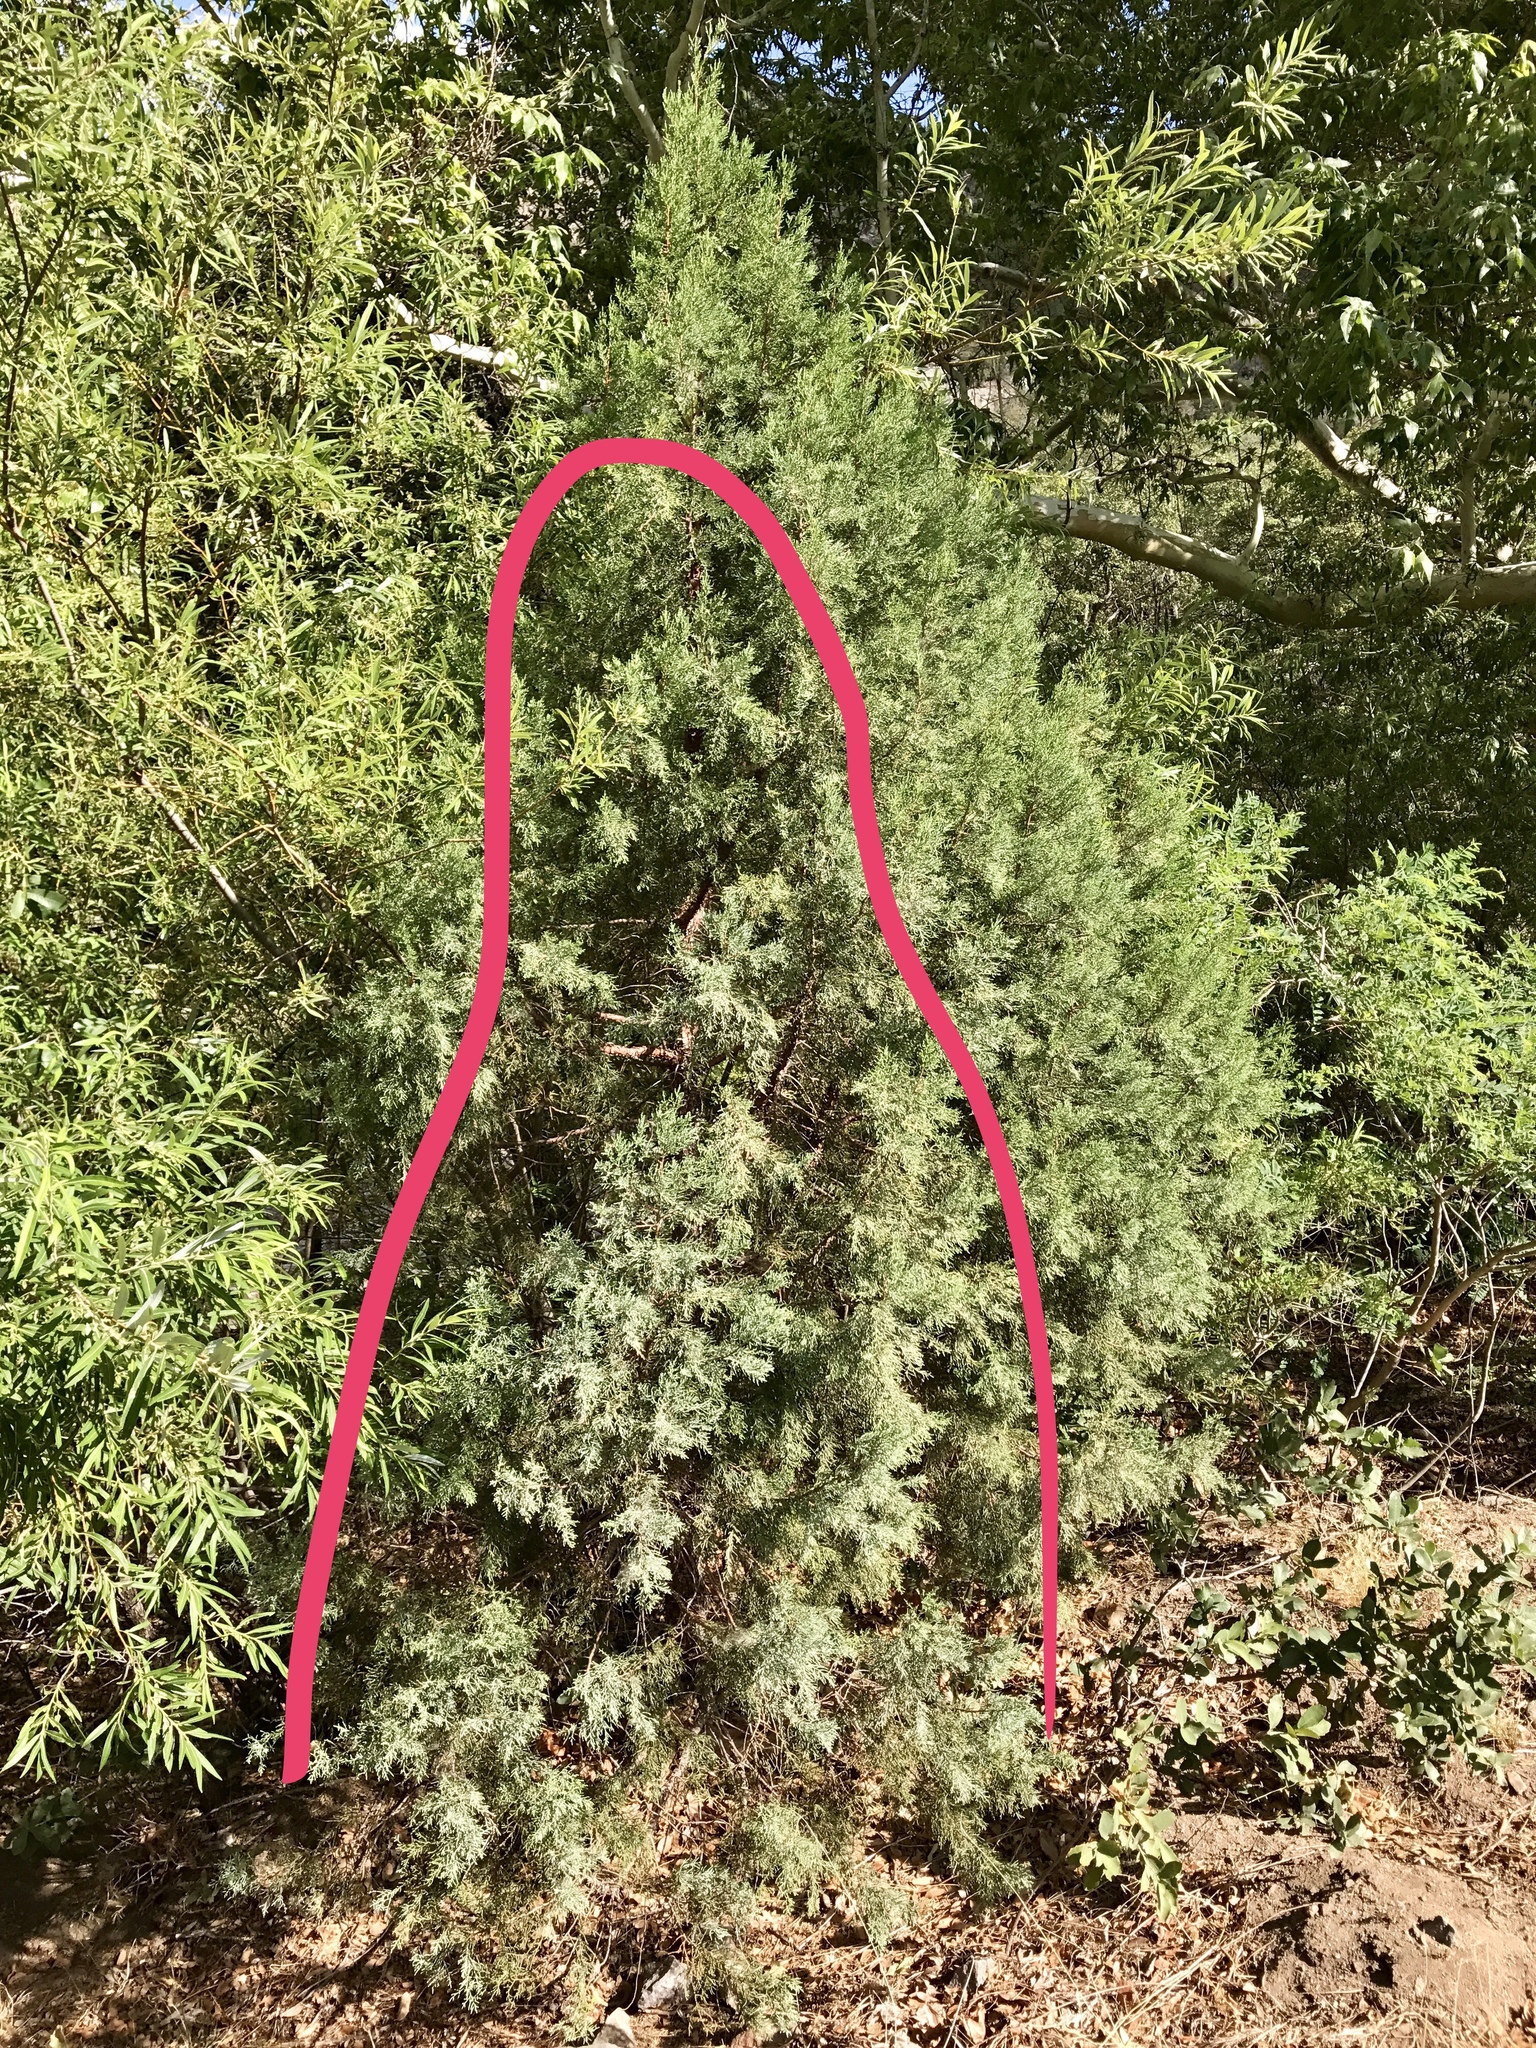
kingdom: Plantae
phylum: Tracheophyta
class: Pinopsida
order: Pinales
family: Cupressaceae
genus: Juniperus
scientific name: Juniperus deppeana
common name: Alligator juniper
